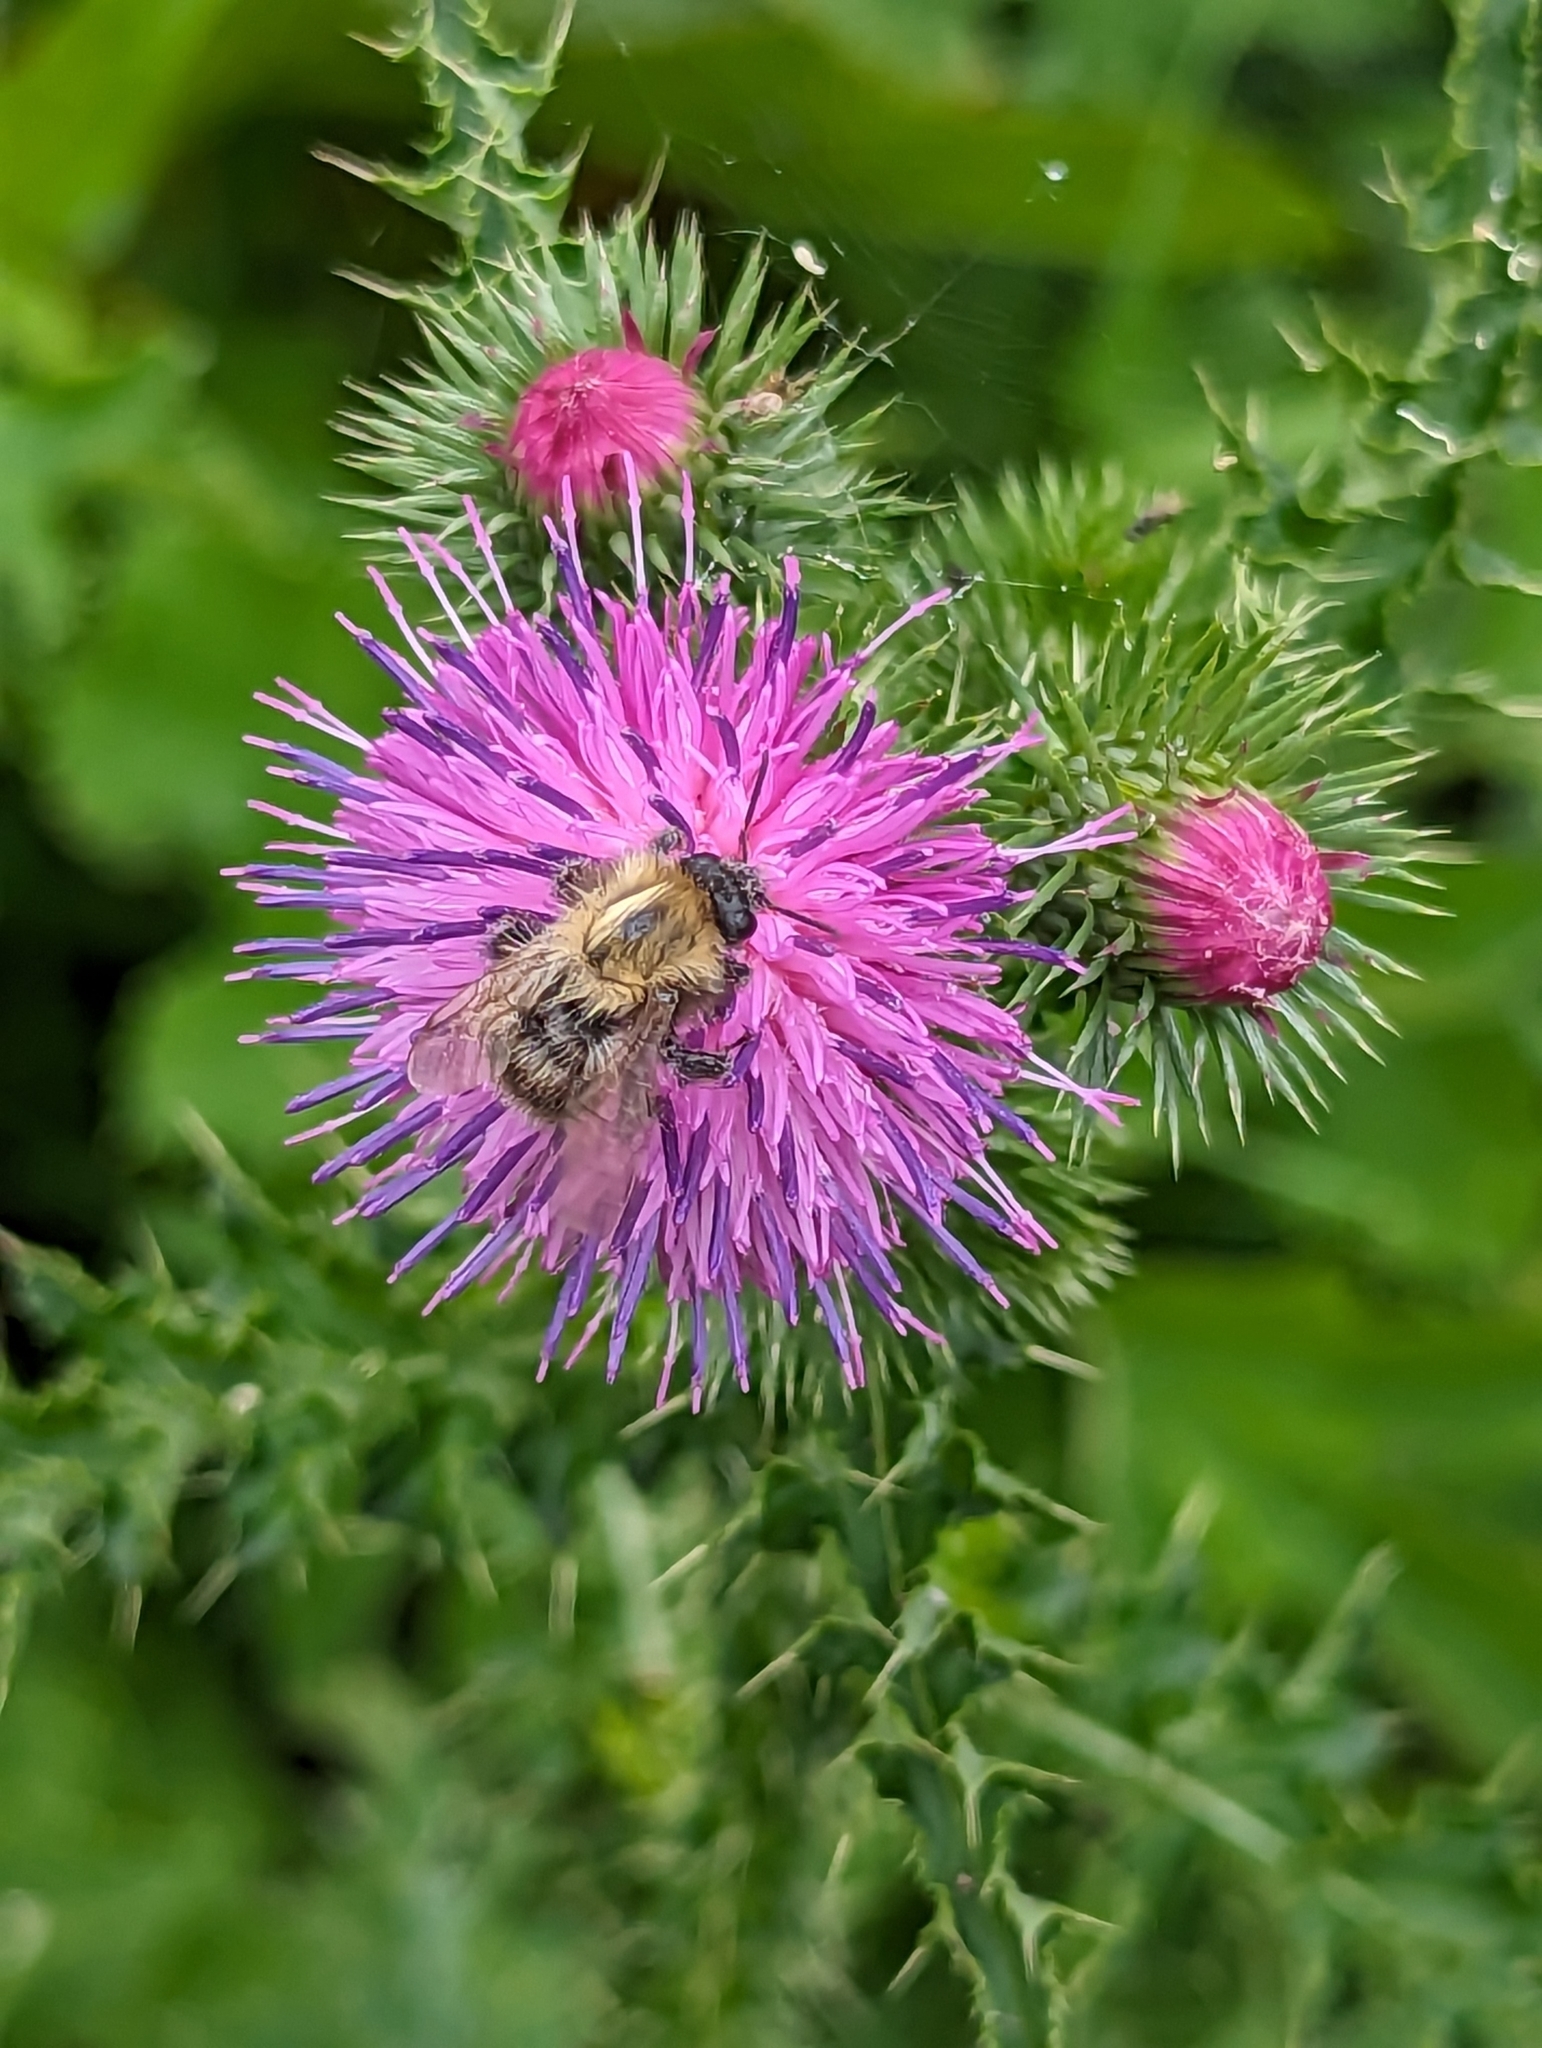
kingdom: Animalia
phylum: Arthropoda
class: Insecta
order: Hymenoptera
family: Apidae
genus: Bombus
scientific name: Bombus pascuorum
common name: Common carder bee
